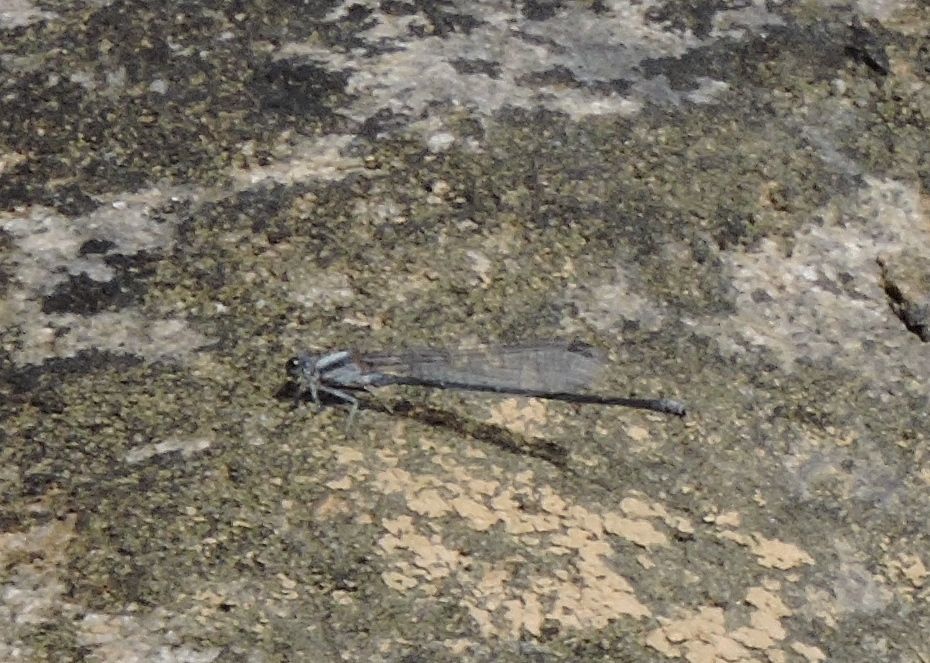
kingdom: Animalia
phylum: Arthropoda
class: Insecta
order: Odonata
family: Coenagrionidae
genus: Argia
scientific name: Argia moesta
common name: Powdered dancer
